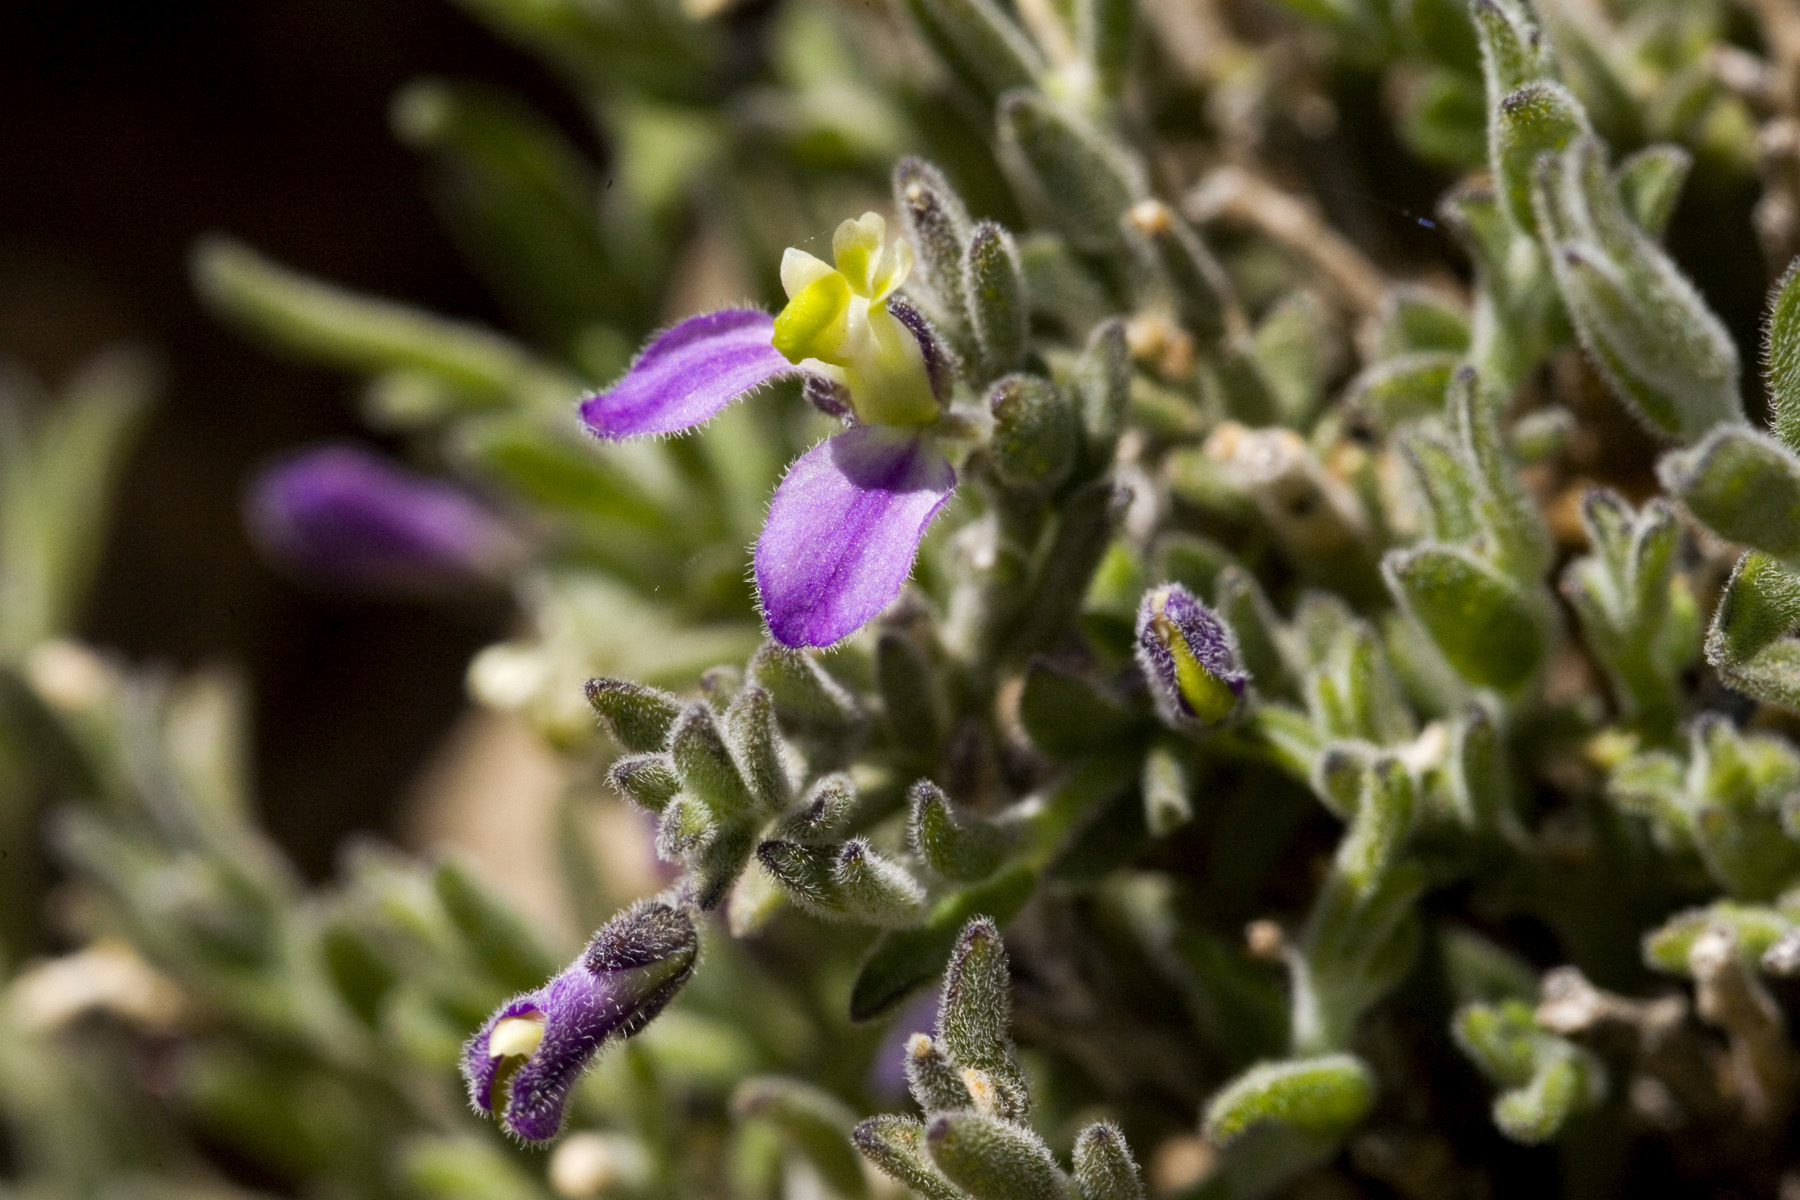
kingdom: Plantae
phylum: Tracheophyta
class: Magnoliopsida
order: Fabales
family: Polygalaceae
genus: Hebecarpa
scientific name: Hebecarpa macradenia
